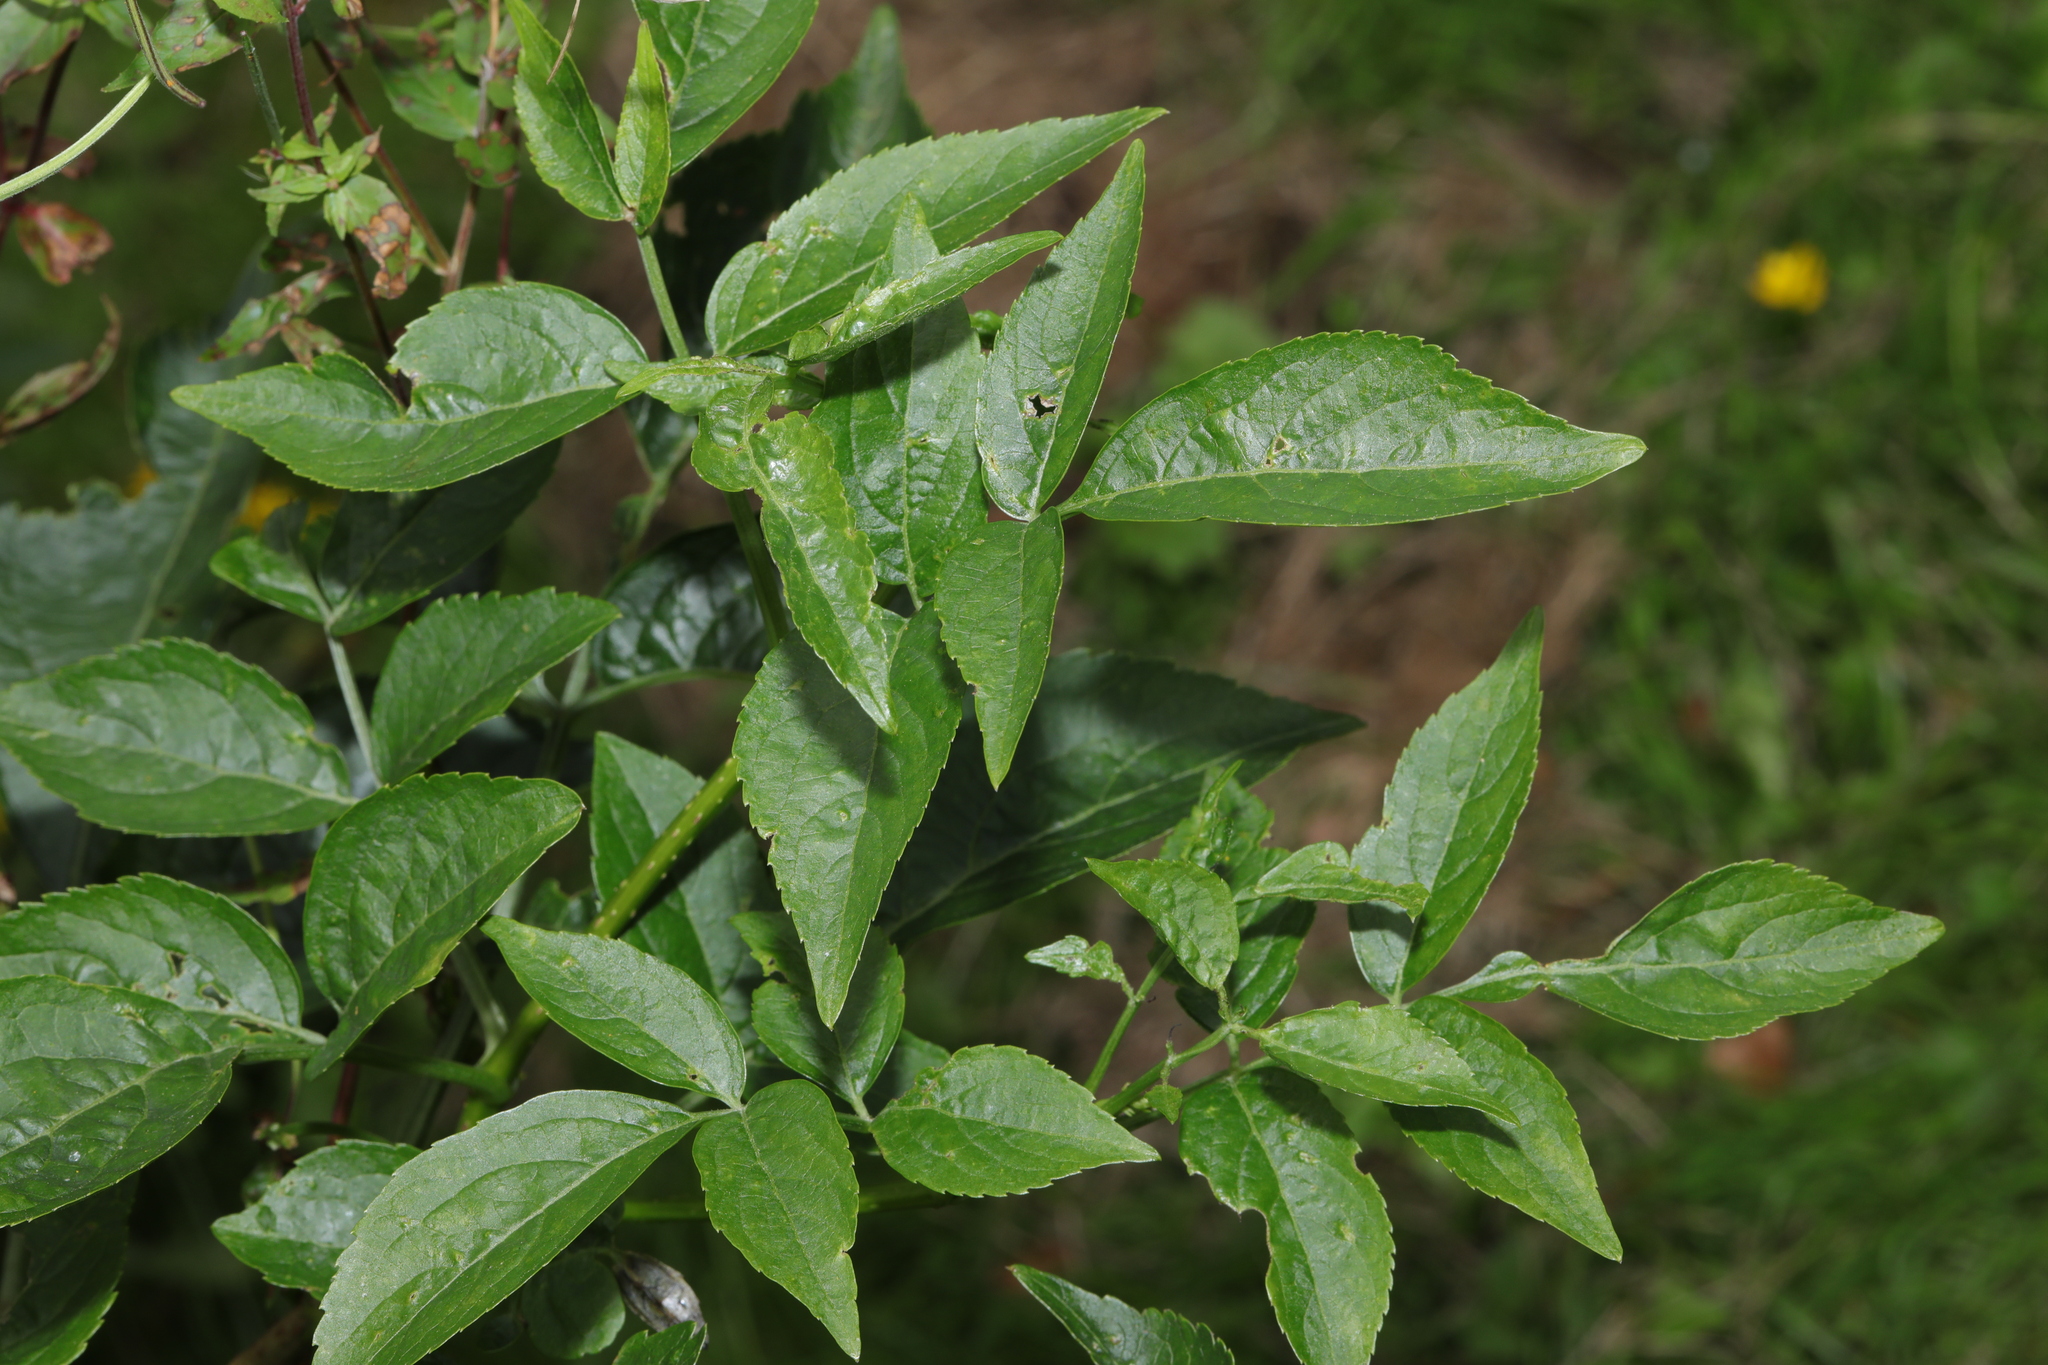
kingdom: Plantae
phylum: Tracheophyta
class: Magnoliopsida
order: Dipsacales
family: Viburnaceae
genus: Sambucus
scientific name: Sambucus nigra
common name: Elder
